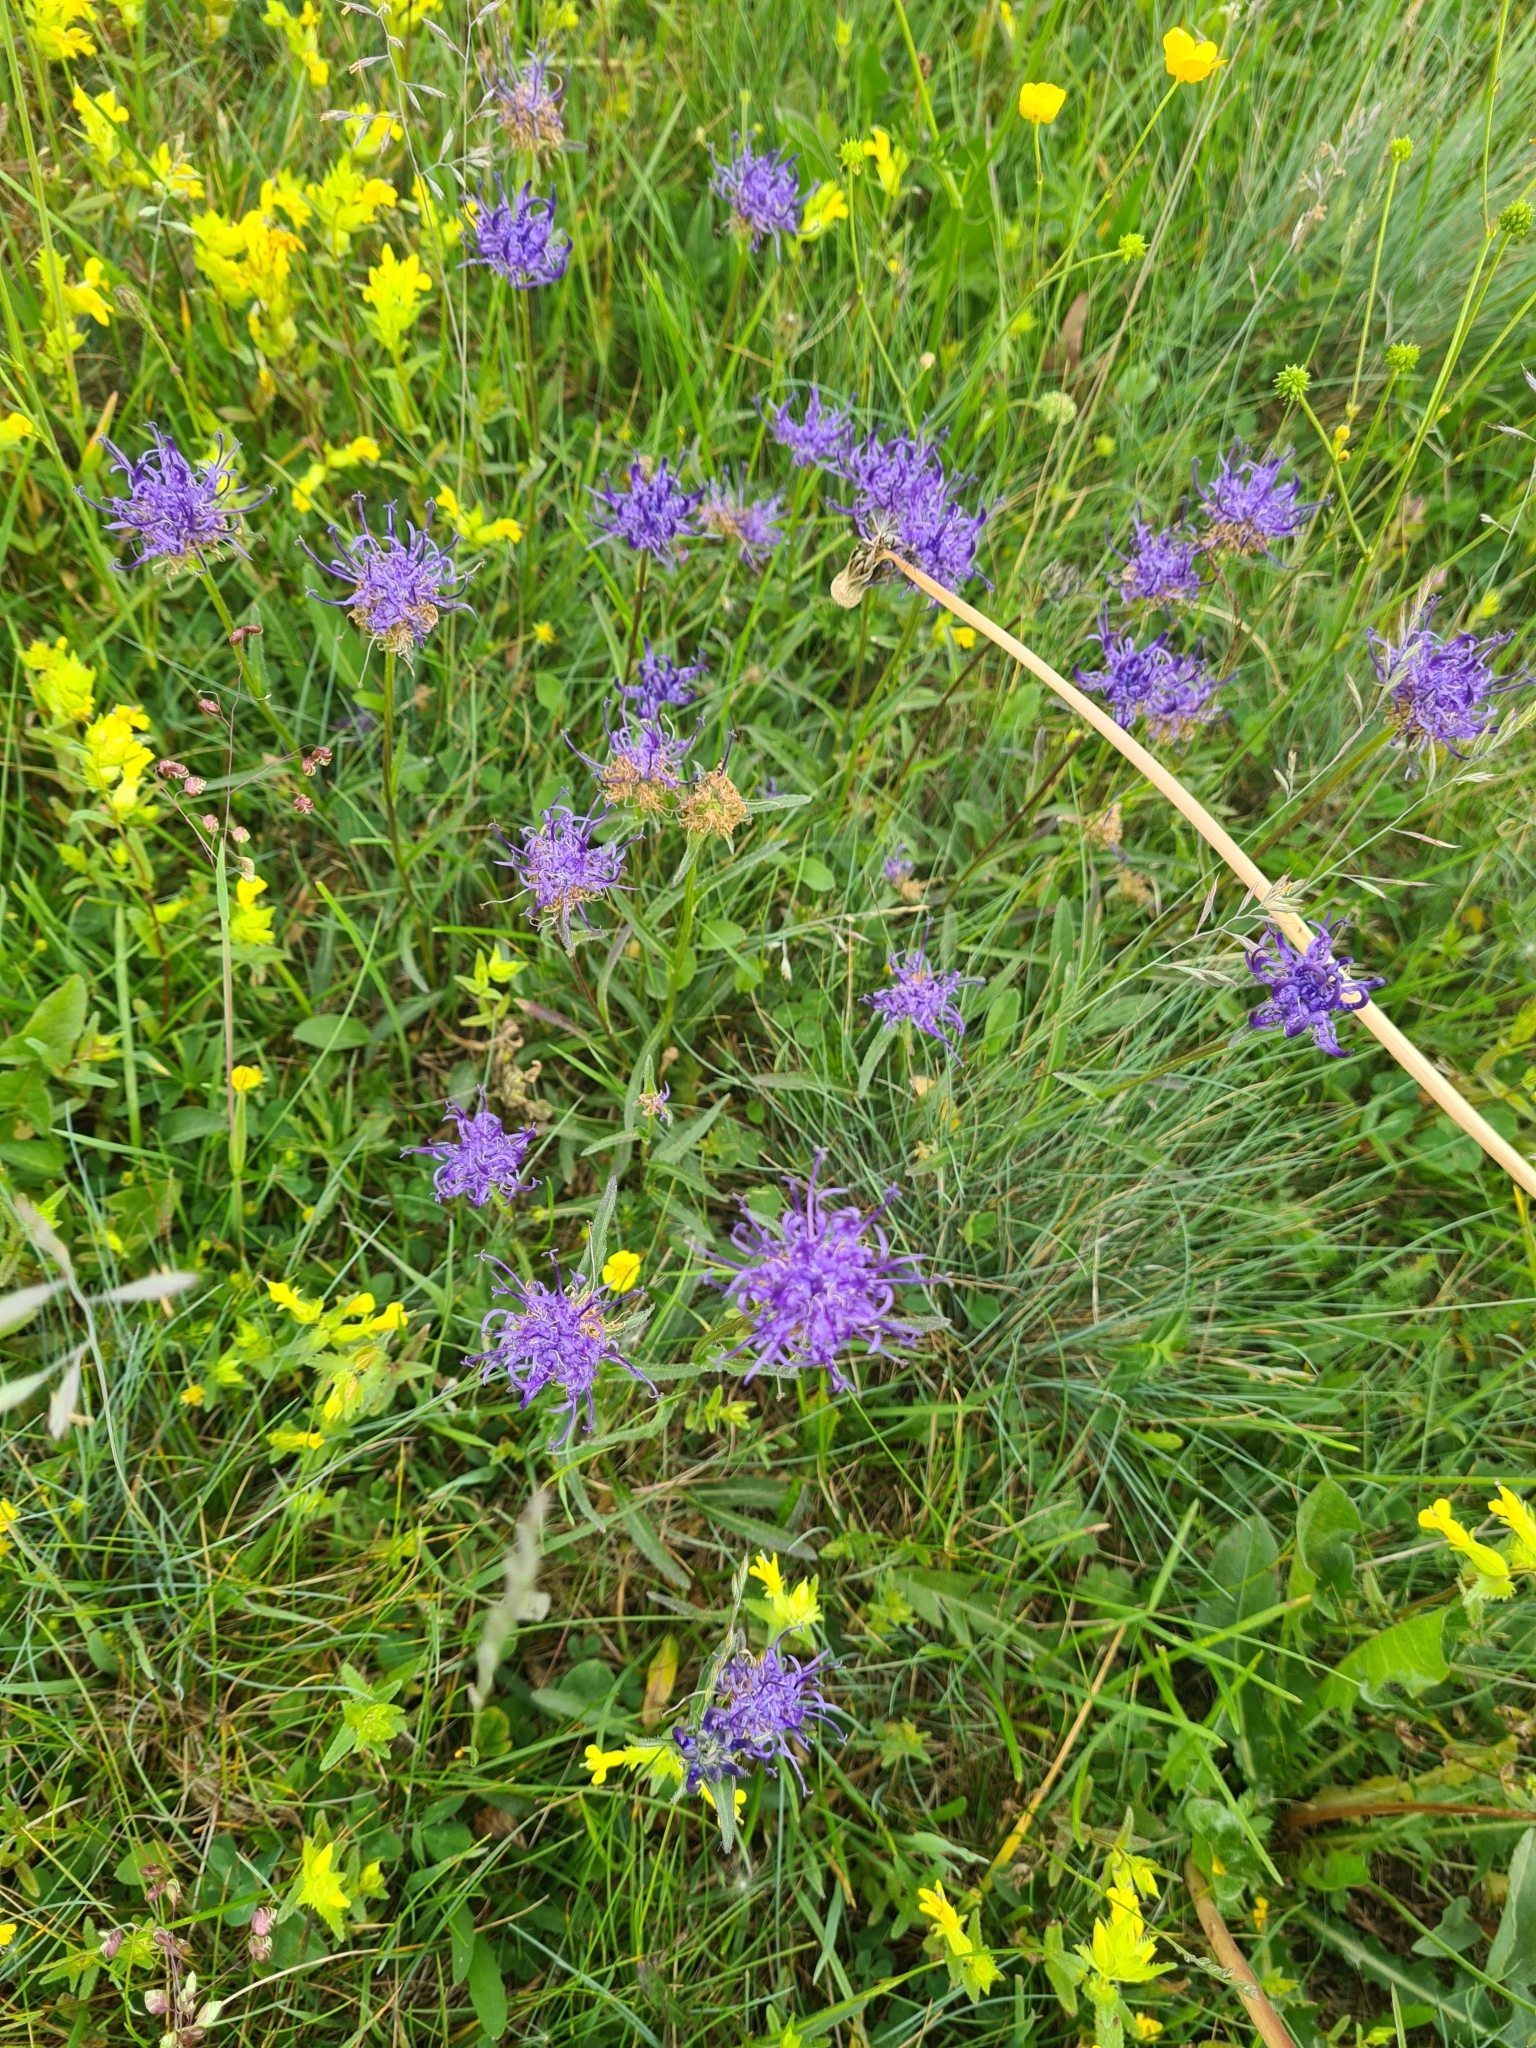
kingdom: Plantae
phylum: Tracheophyta
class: Magnoliopsida
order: Asterales
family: Campanulaceae
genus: Phyteuma
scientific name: Phyteuma orbiculare
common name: Round-headed rampion
